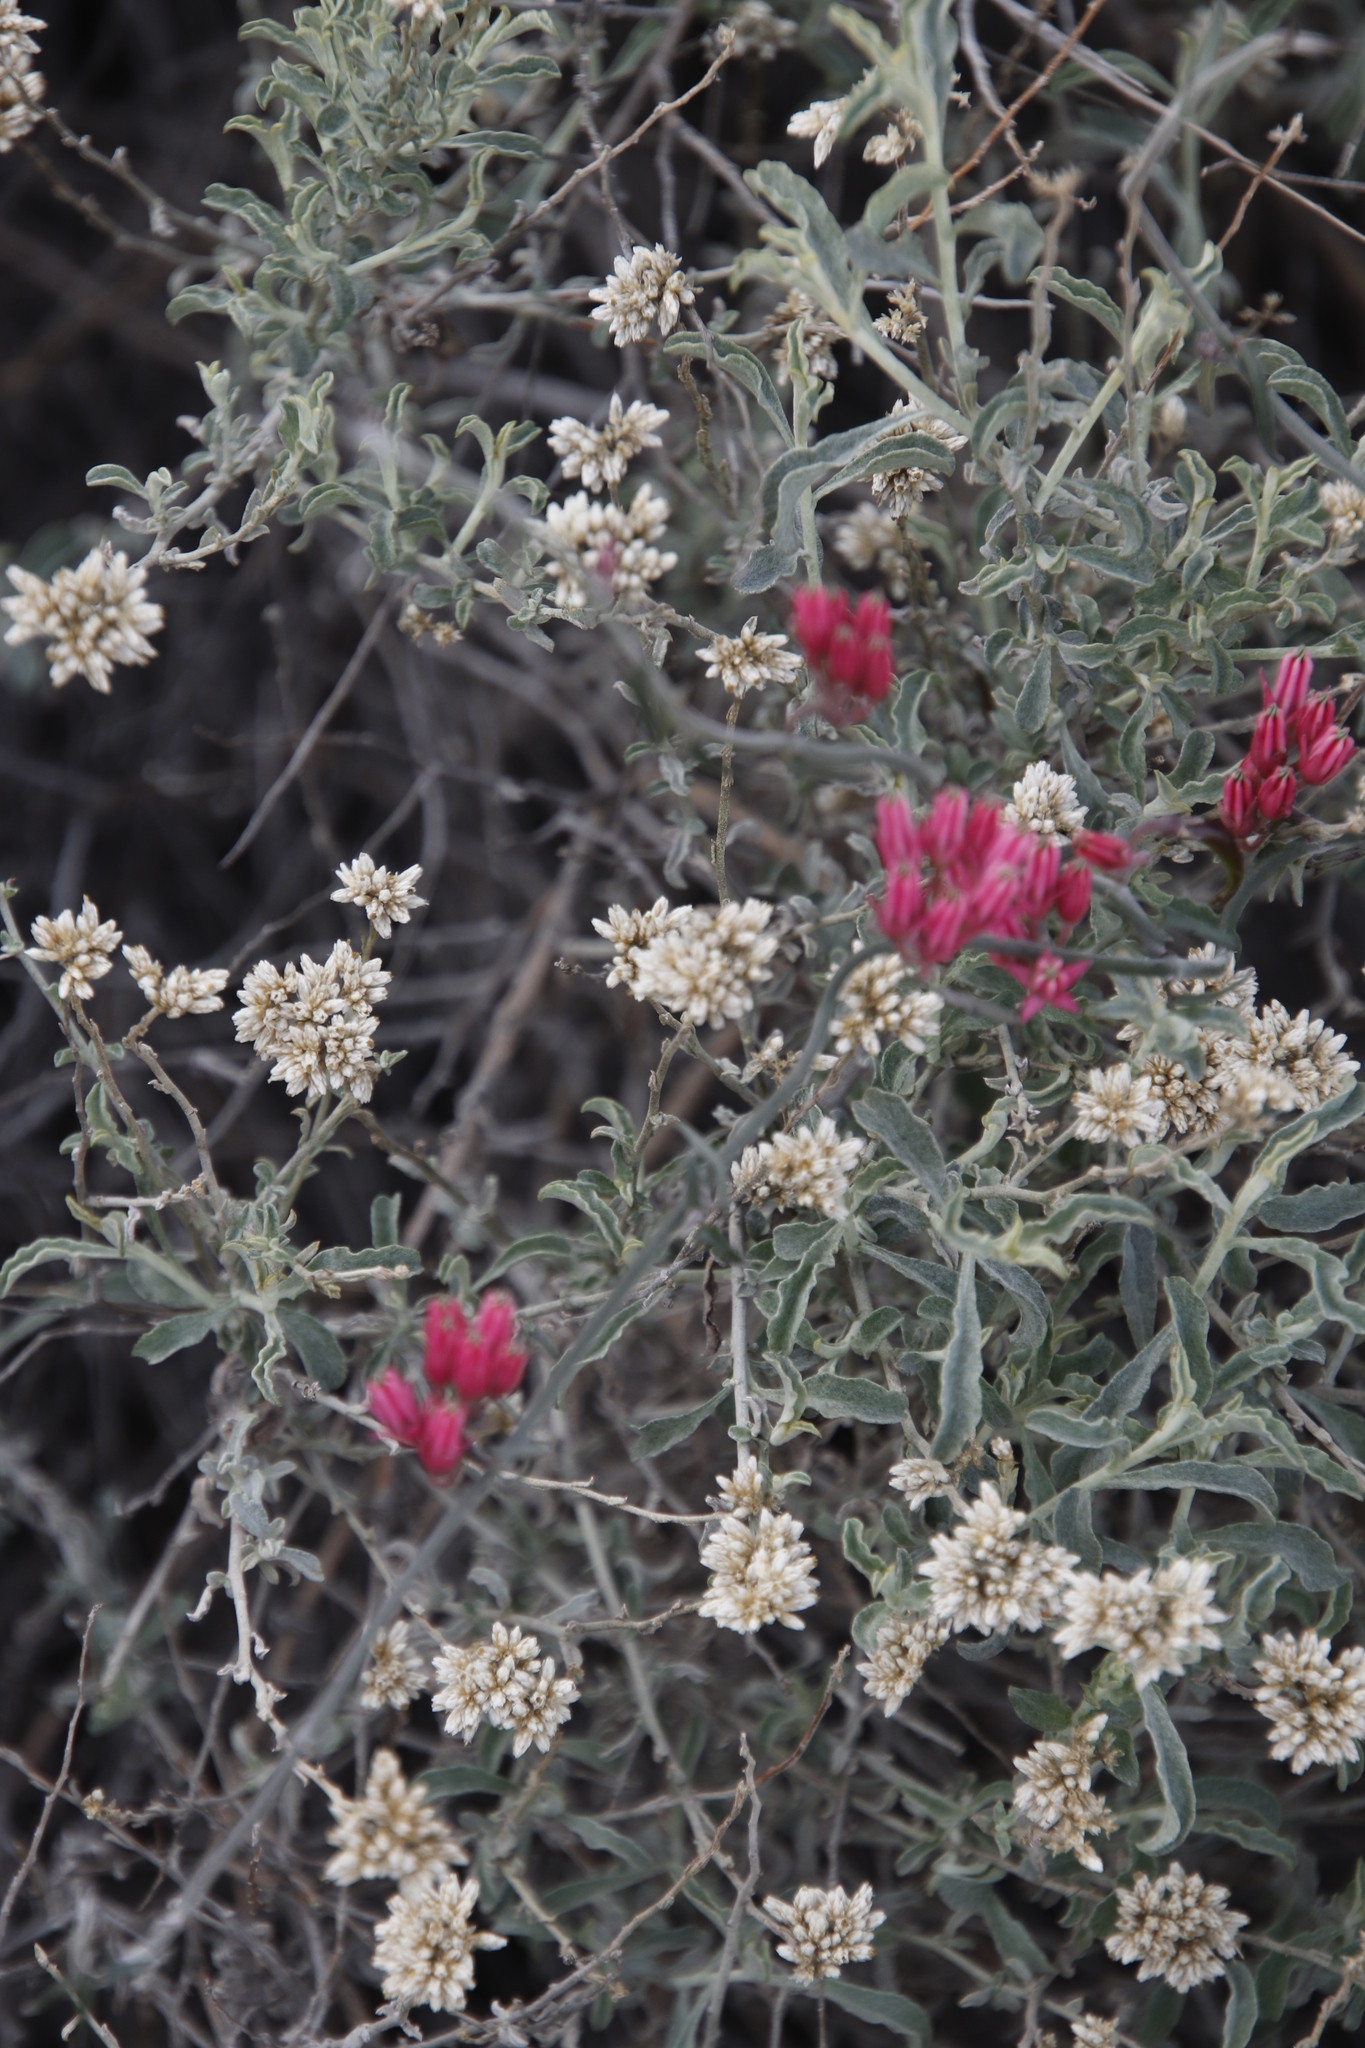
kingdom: Plantae
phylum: Tracheophyta
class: Magnoliopsida
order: Gentianales
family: Apocynaceae
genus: Microloma
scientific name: Microloma sagittatum
